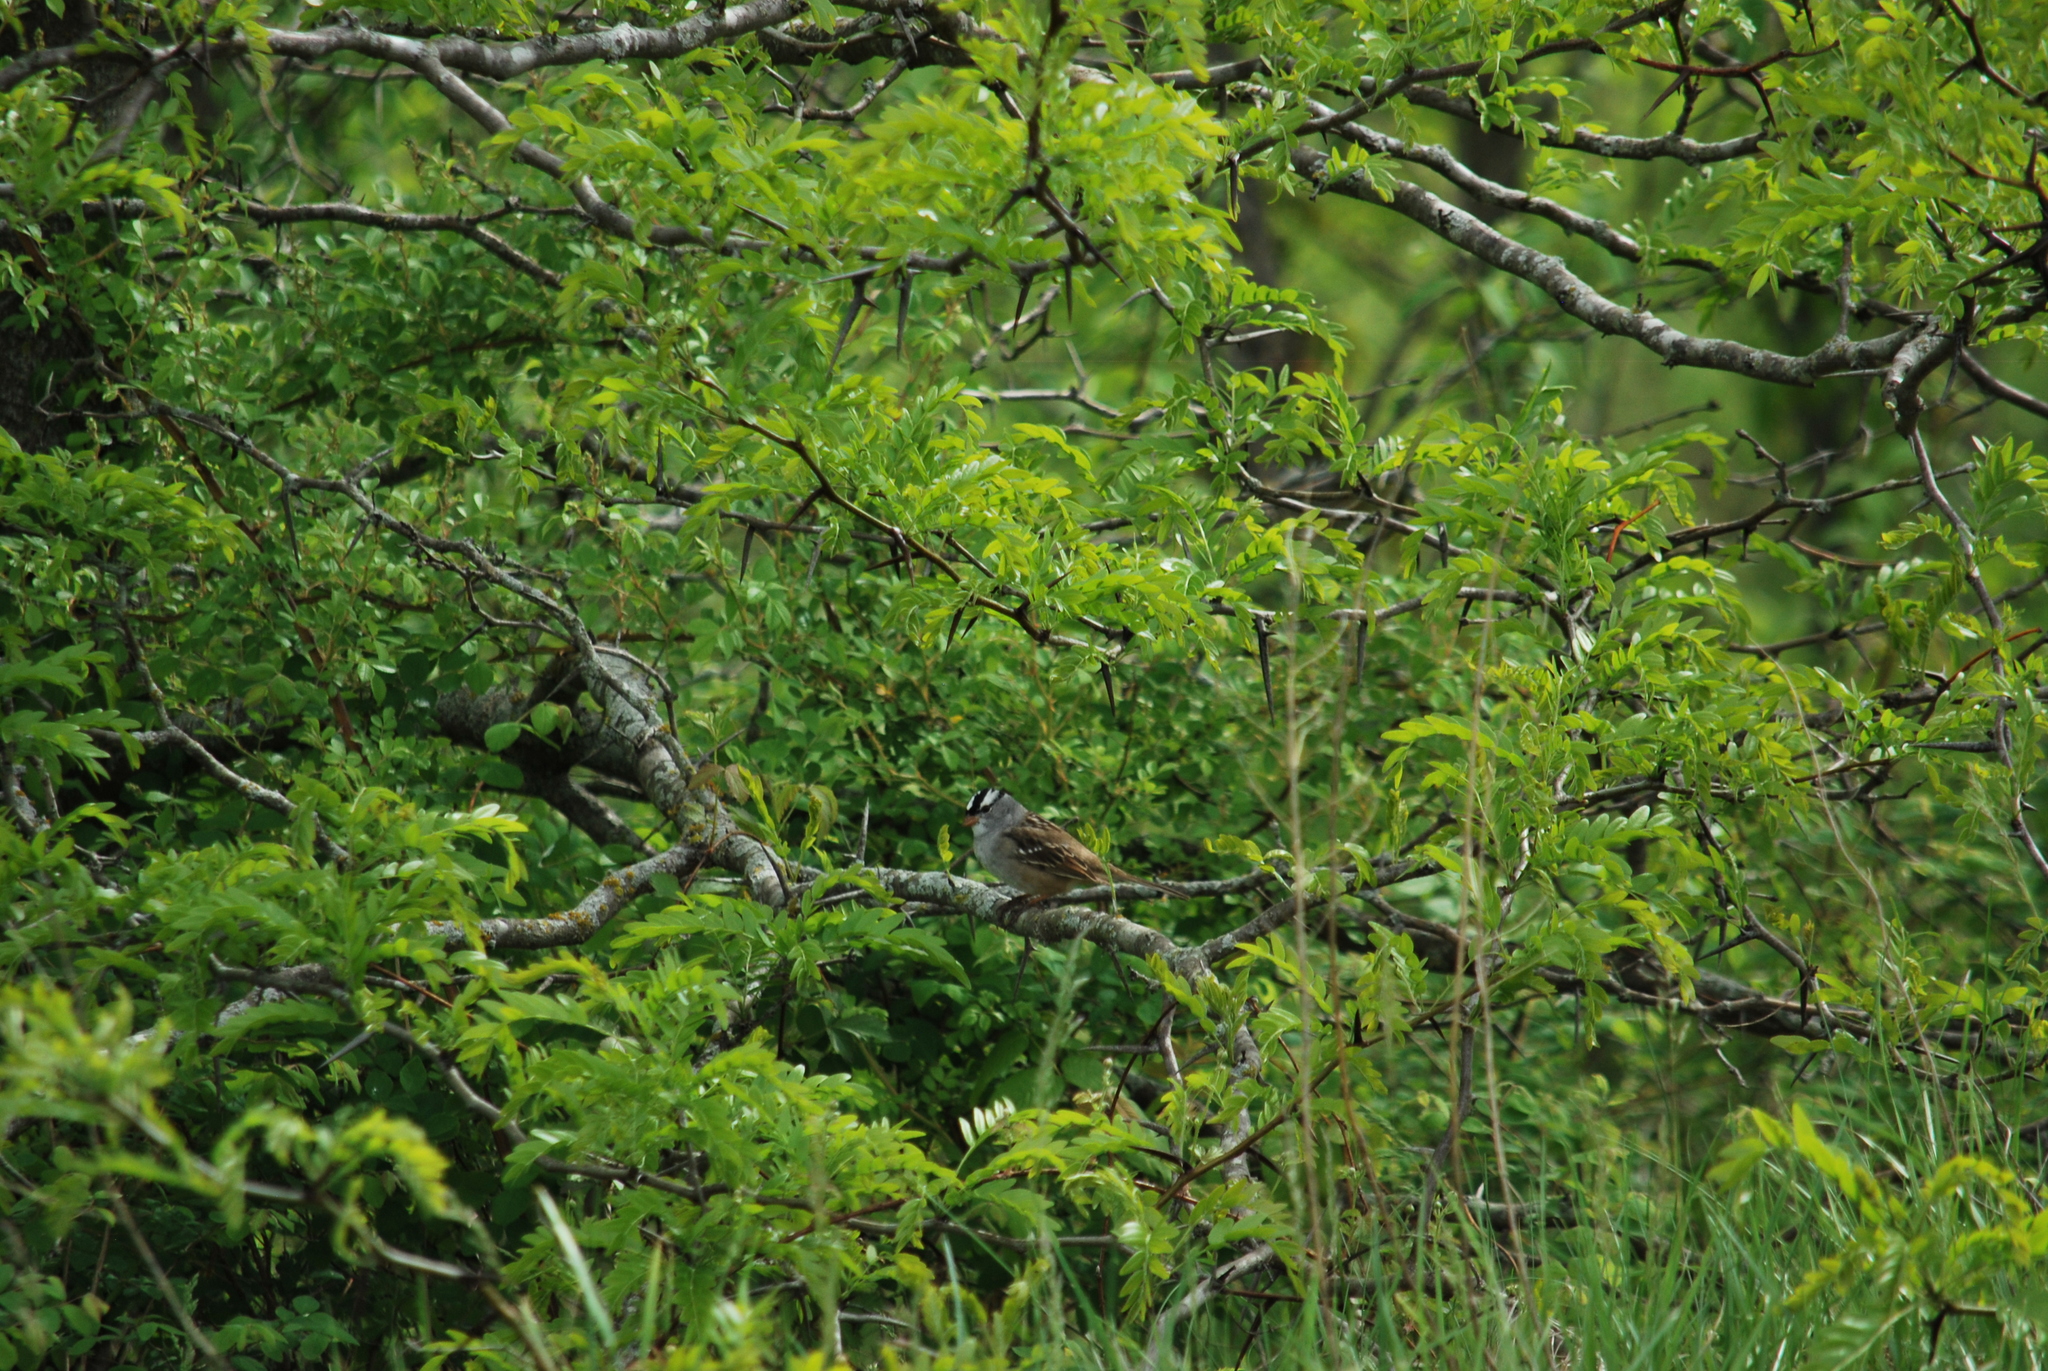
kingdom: Animalia
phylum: Chordata
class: Aves
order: Passeriformes
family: Passerellidae
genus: Zonotrichia
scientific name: Zonotrichia leucophrys
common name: White-crowned sparrow
